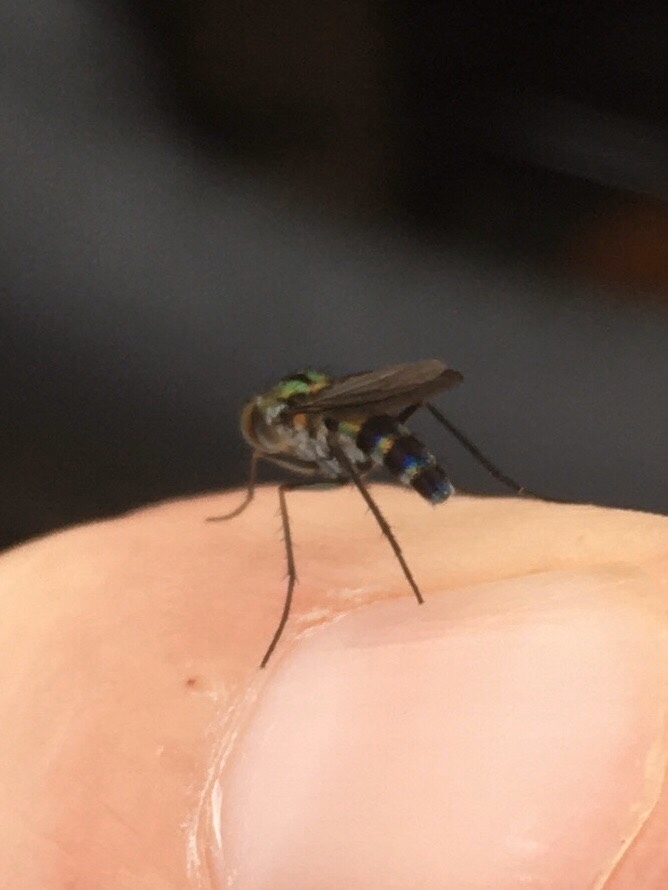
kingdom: Animalia
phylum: Arthropoda
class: Insecta
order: Diptera
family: Dolichopodidae
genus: Plagioneurus
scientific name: Plagioneurus univittatus
